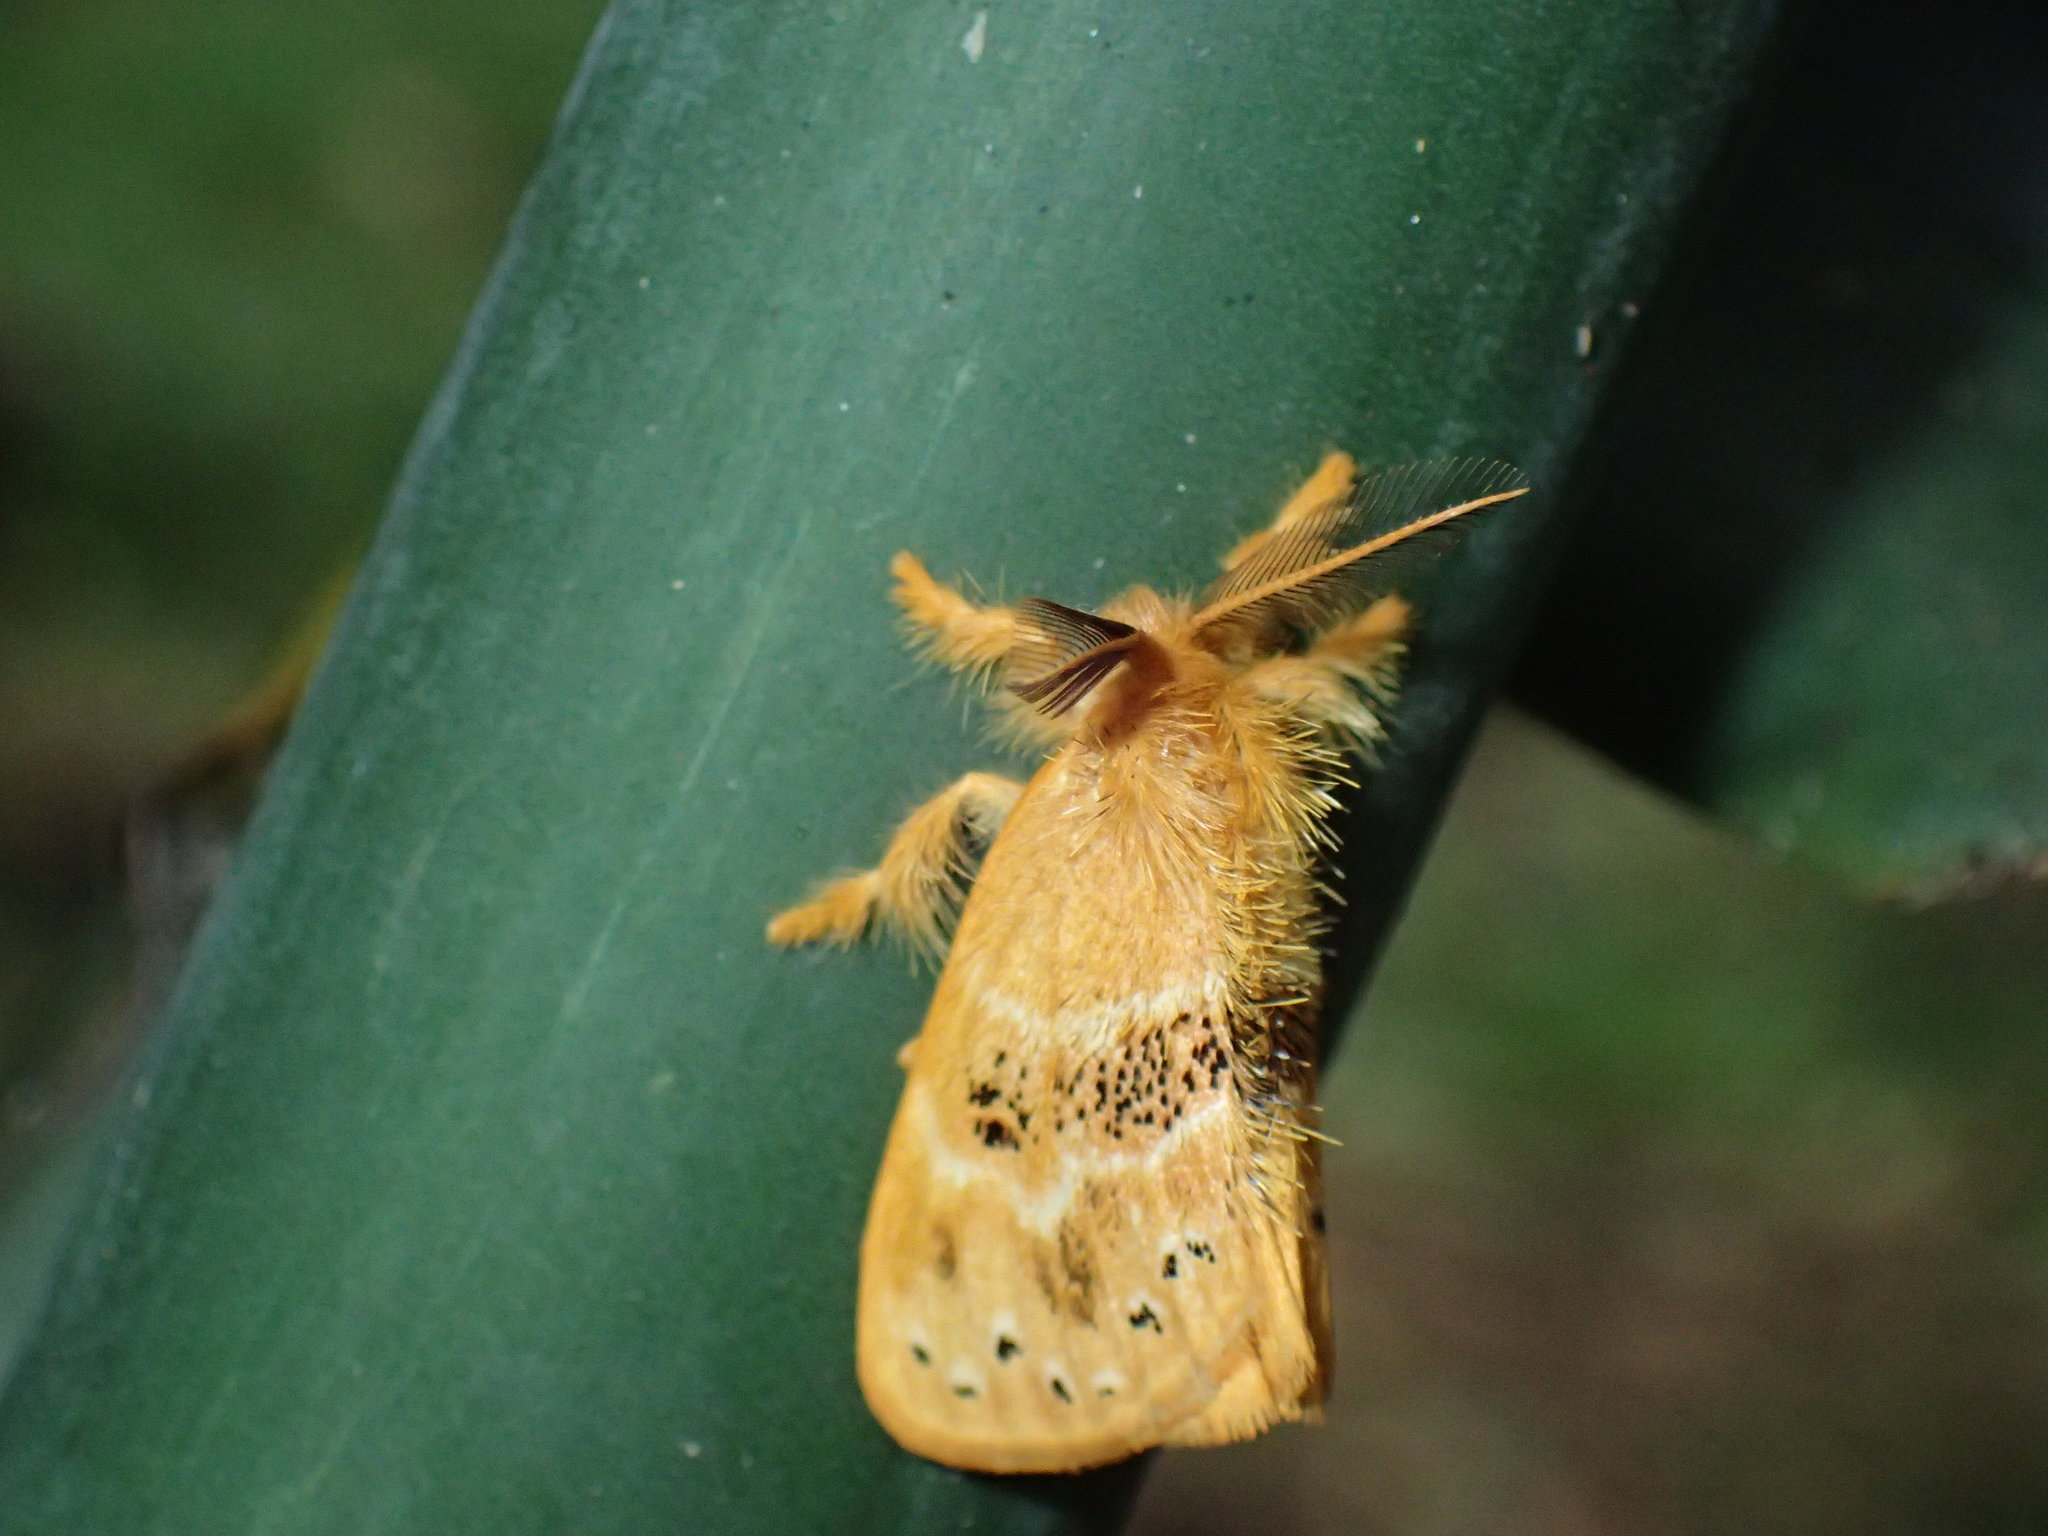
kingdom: Animalia
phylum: Arthropoda
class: Insecta
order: Lepidoptera
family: Erebidae
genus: Euproctis
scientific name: Euproctis Knappetra fasciata
